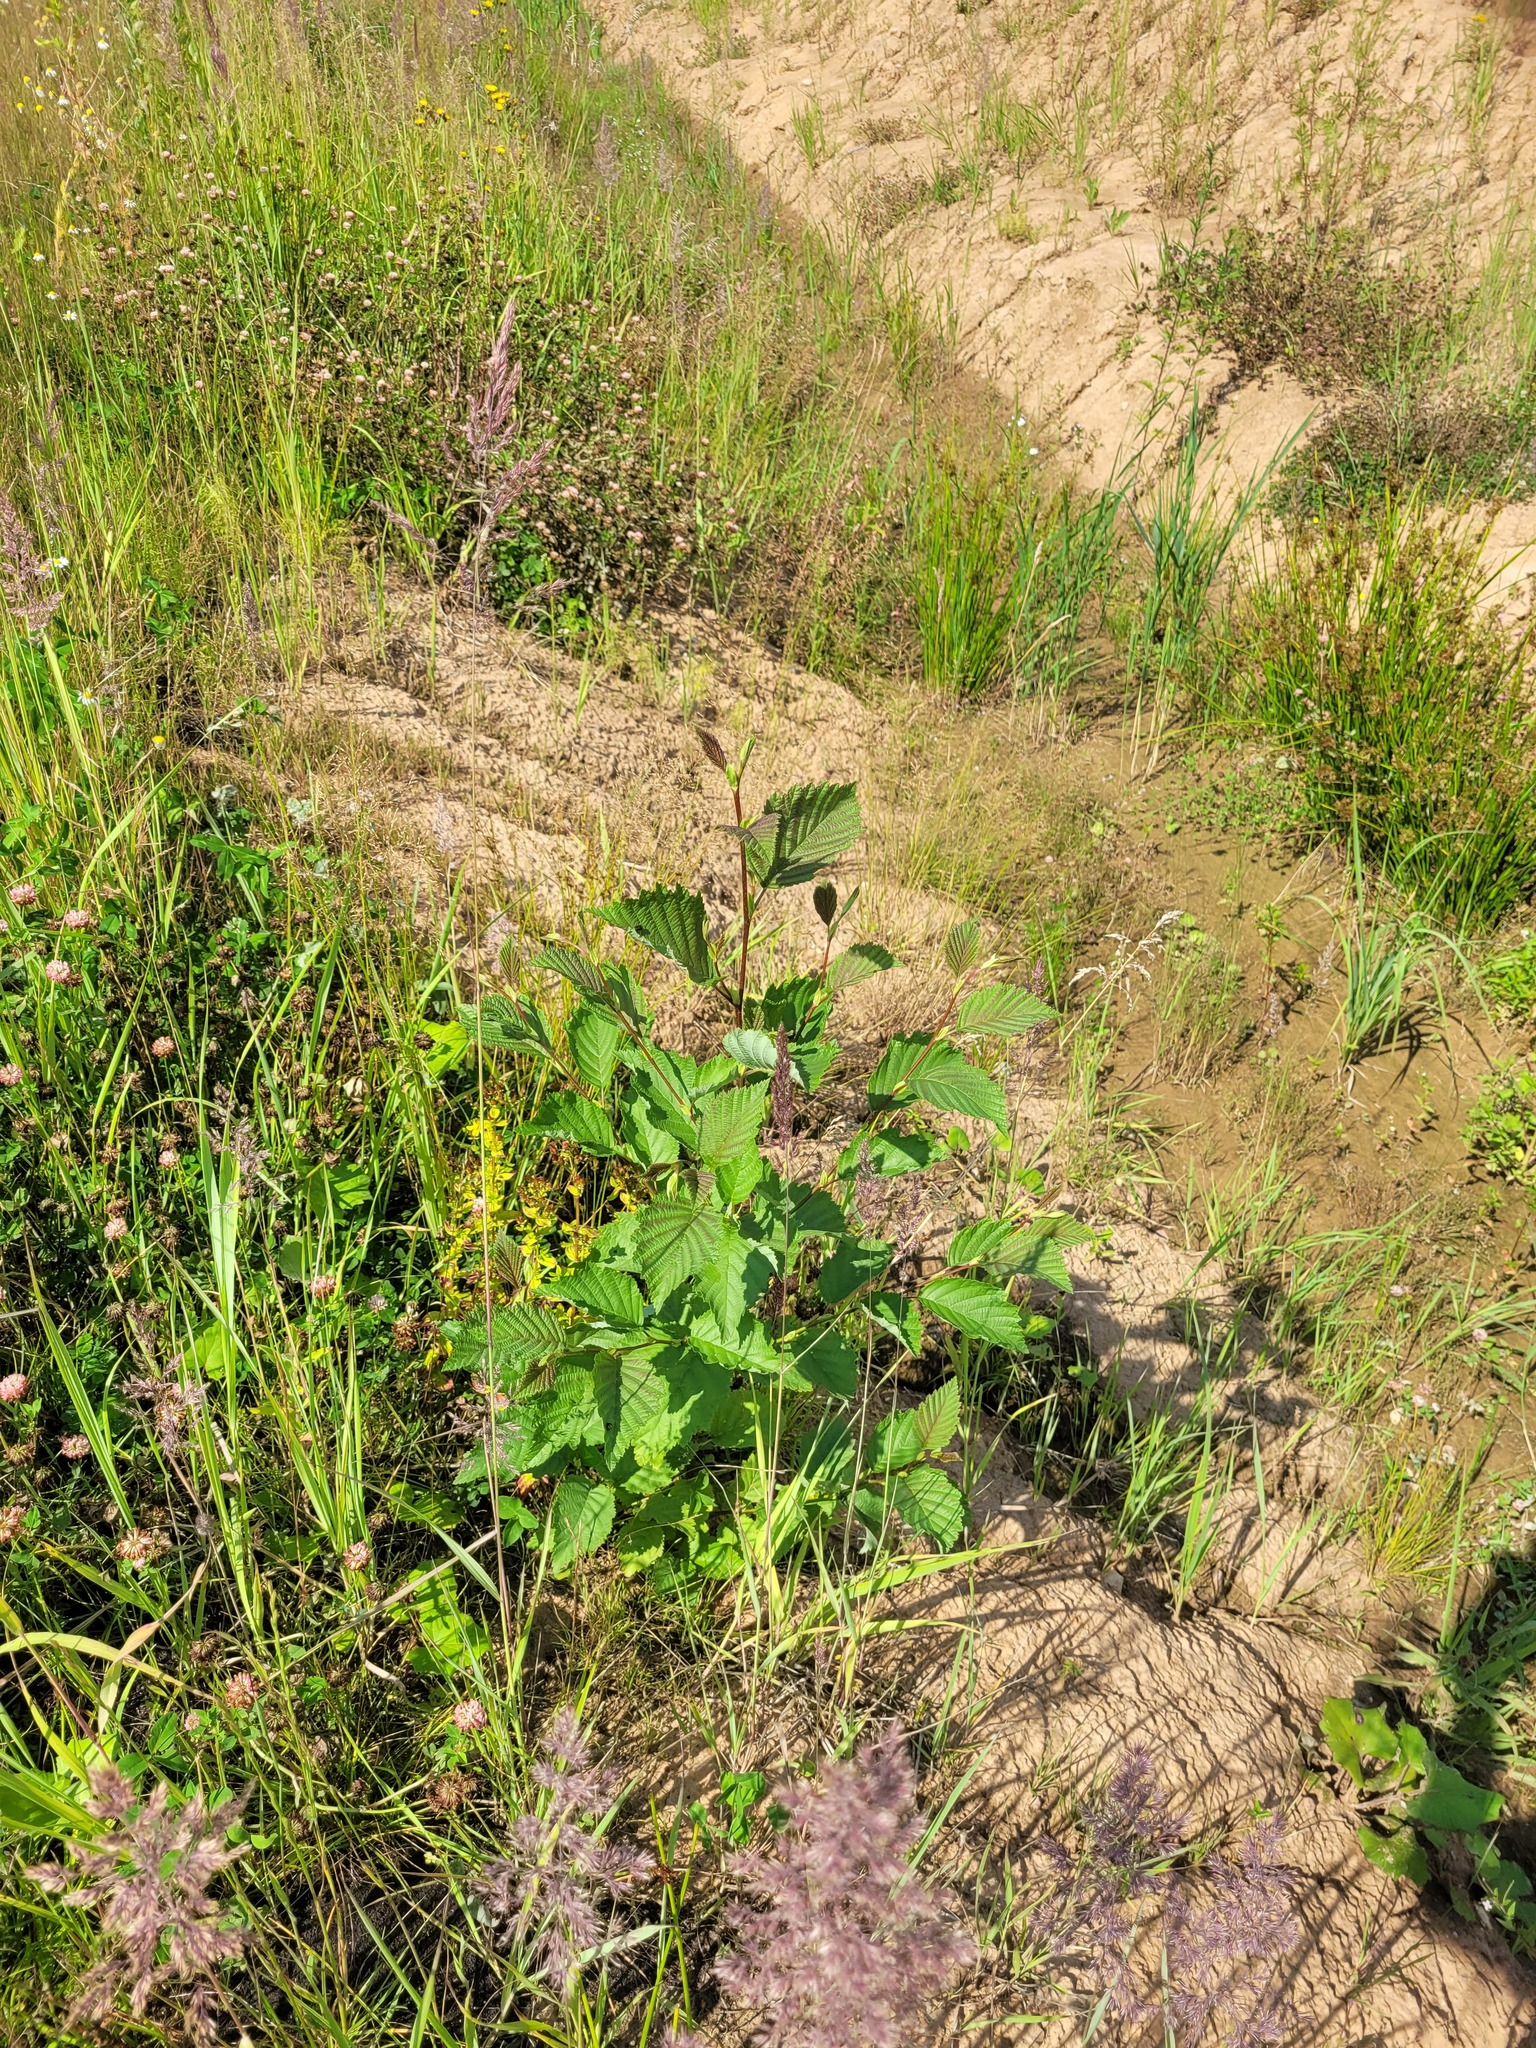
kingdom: Plantae
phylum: Tracheophyta
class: Magnoliopsida
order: Fagales
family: Betulaceae
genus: Alnus
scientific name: Alnus incana
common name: Grey alder
